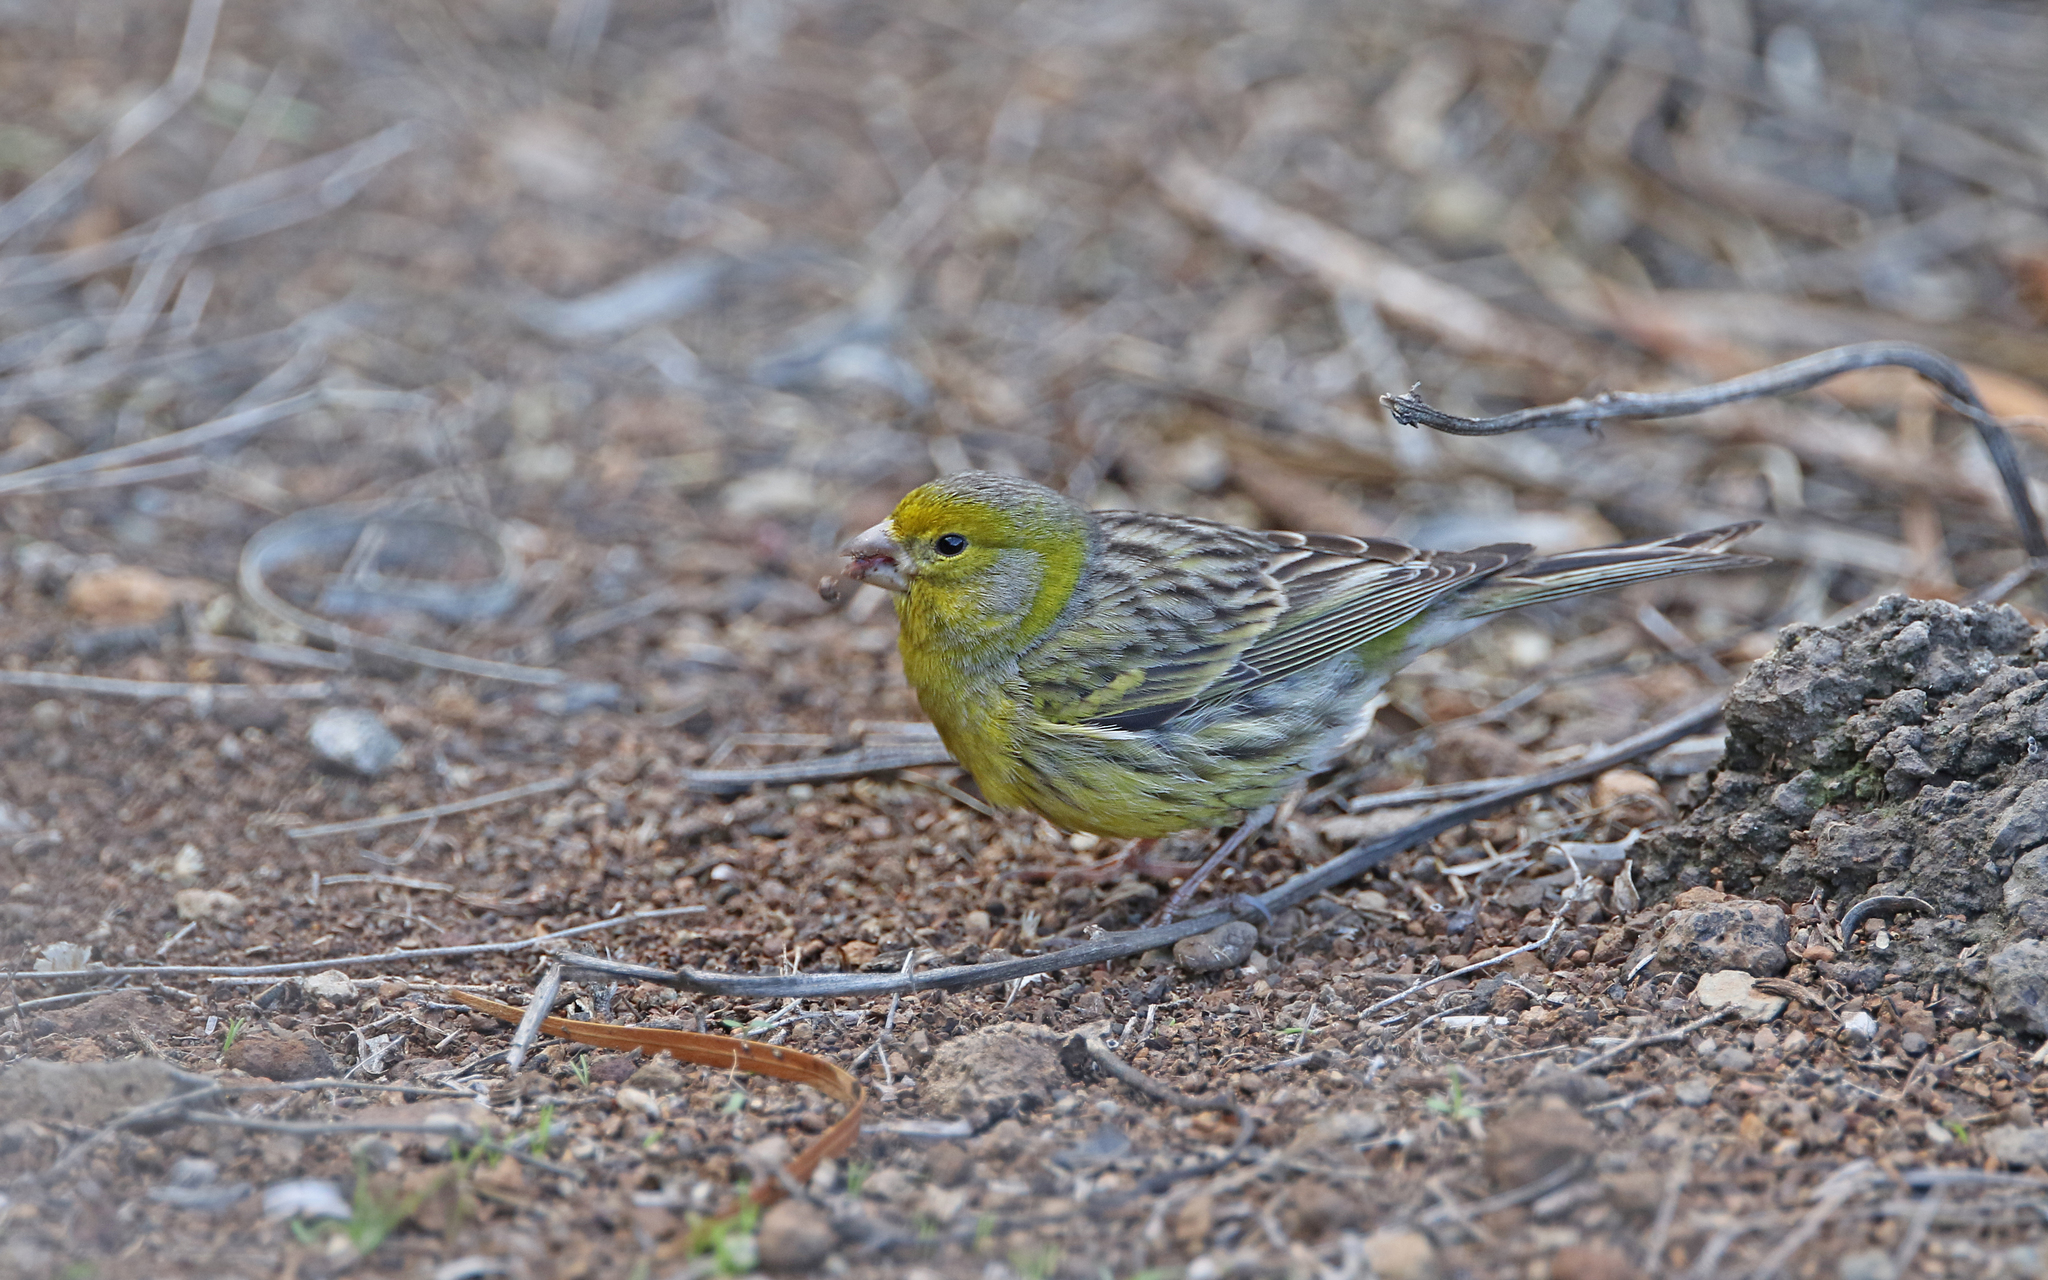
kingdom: Animalia
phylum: Chordata
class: Aves
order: Passeriformes
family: Fringillidae
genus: Serinus
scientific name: Serinus canaria
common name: Atlantic canary
